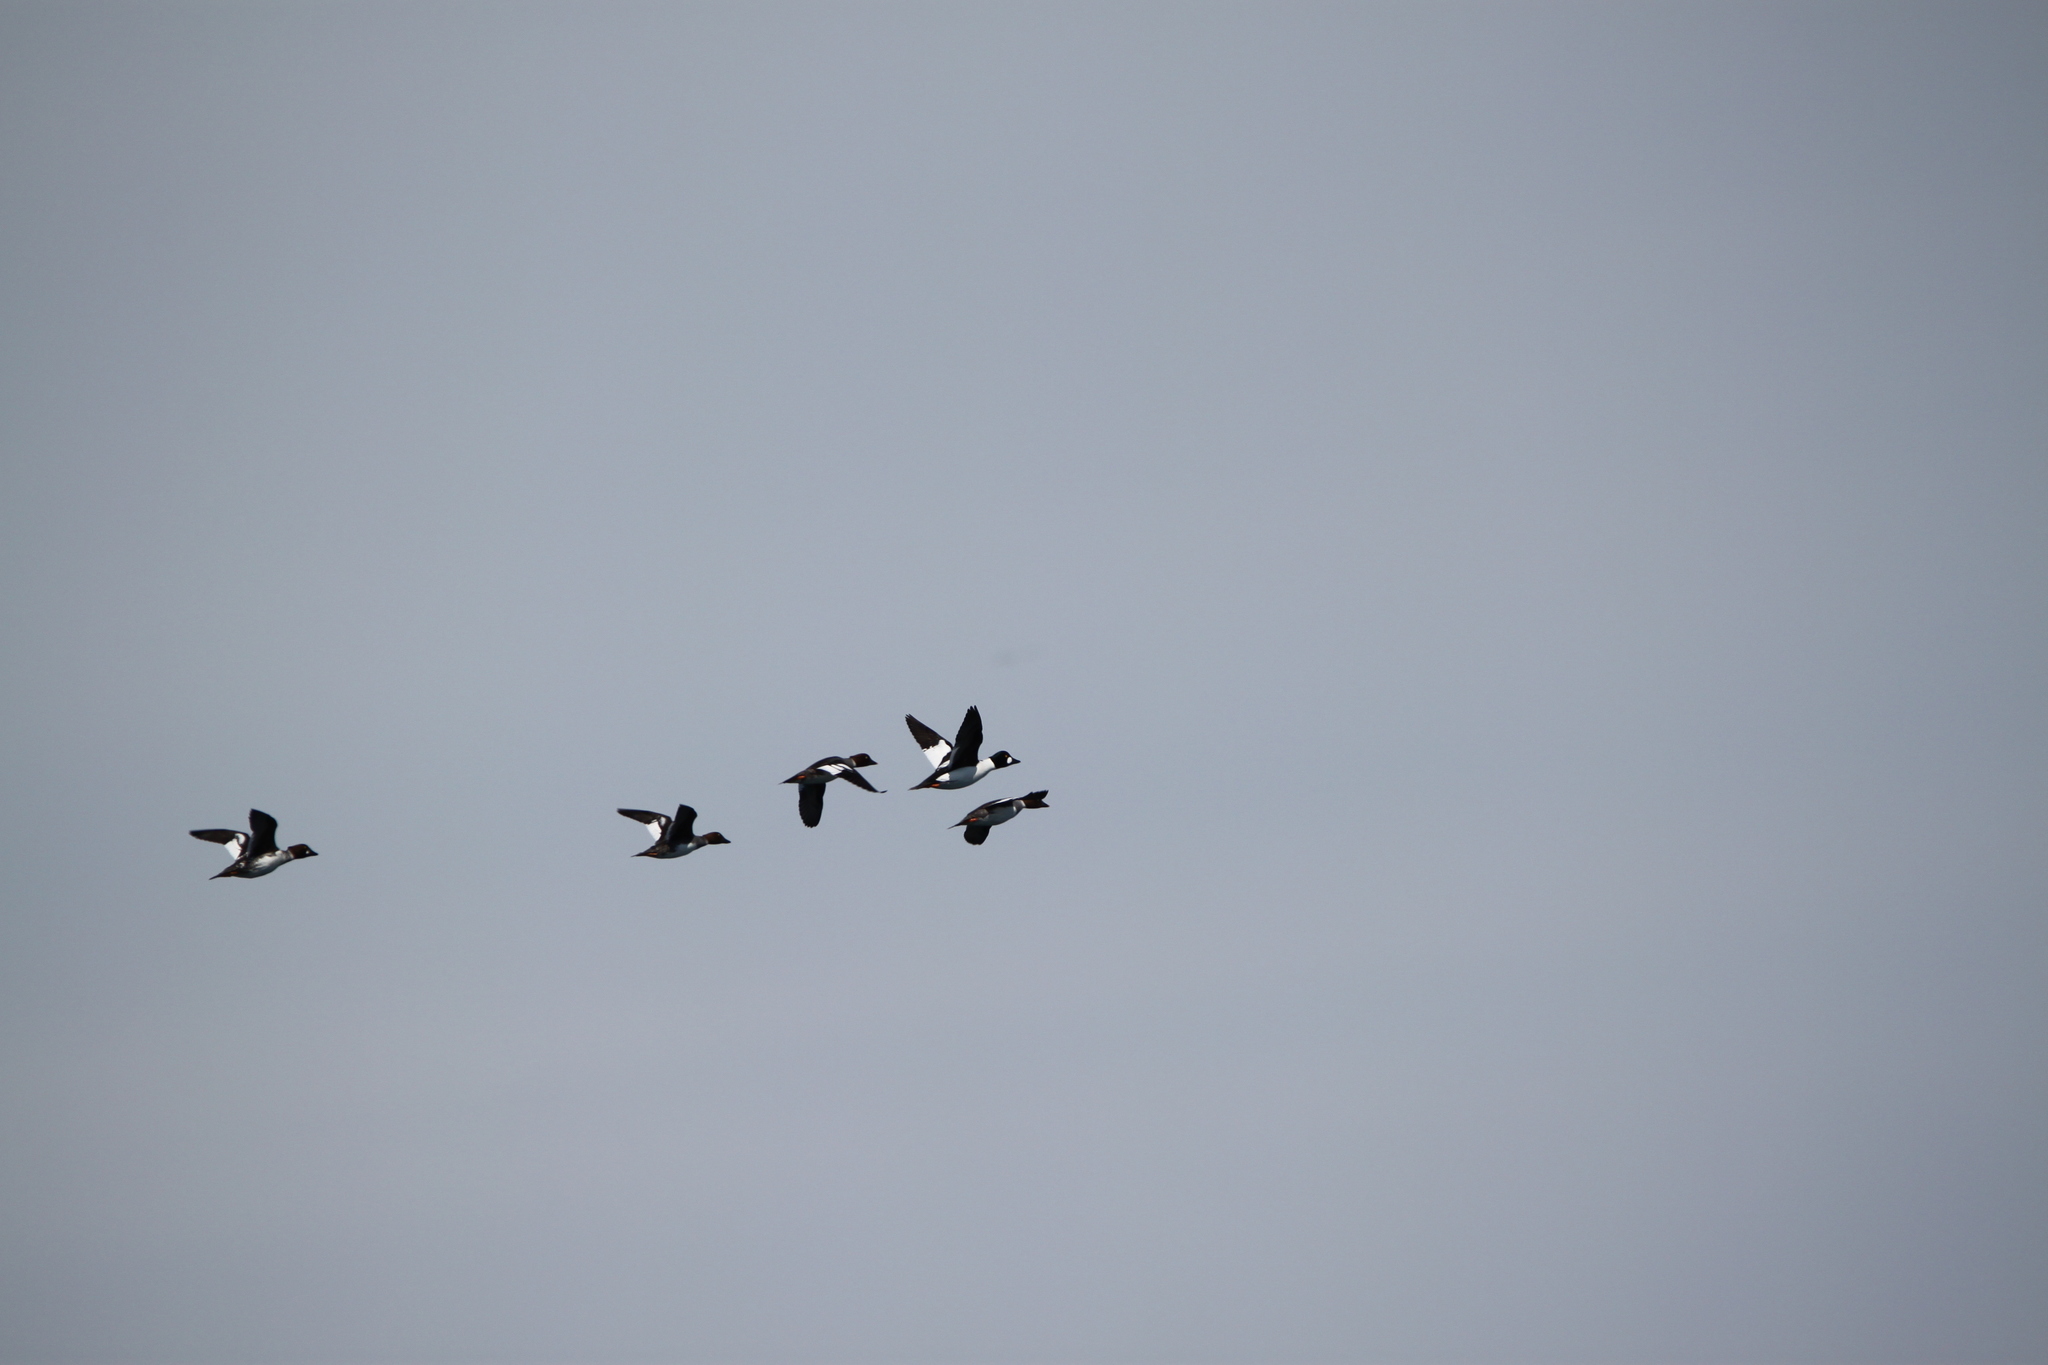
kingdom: Animalia
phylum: Chordata
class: Aves
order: Anseriformes
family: Anatidae
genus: Bucephala
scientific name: Bucephala clangula
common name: Common goldeneye
